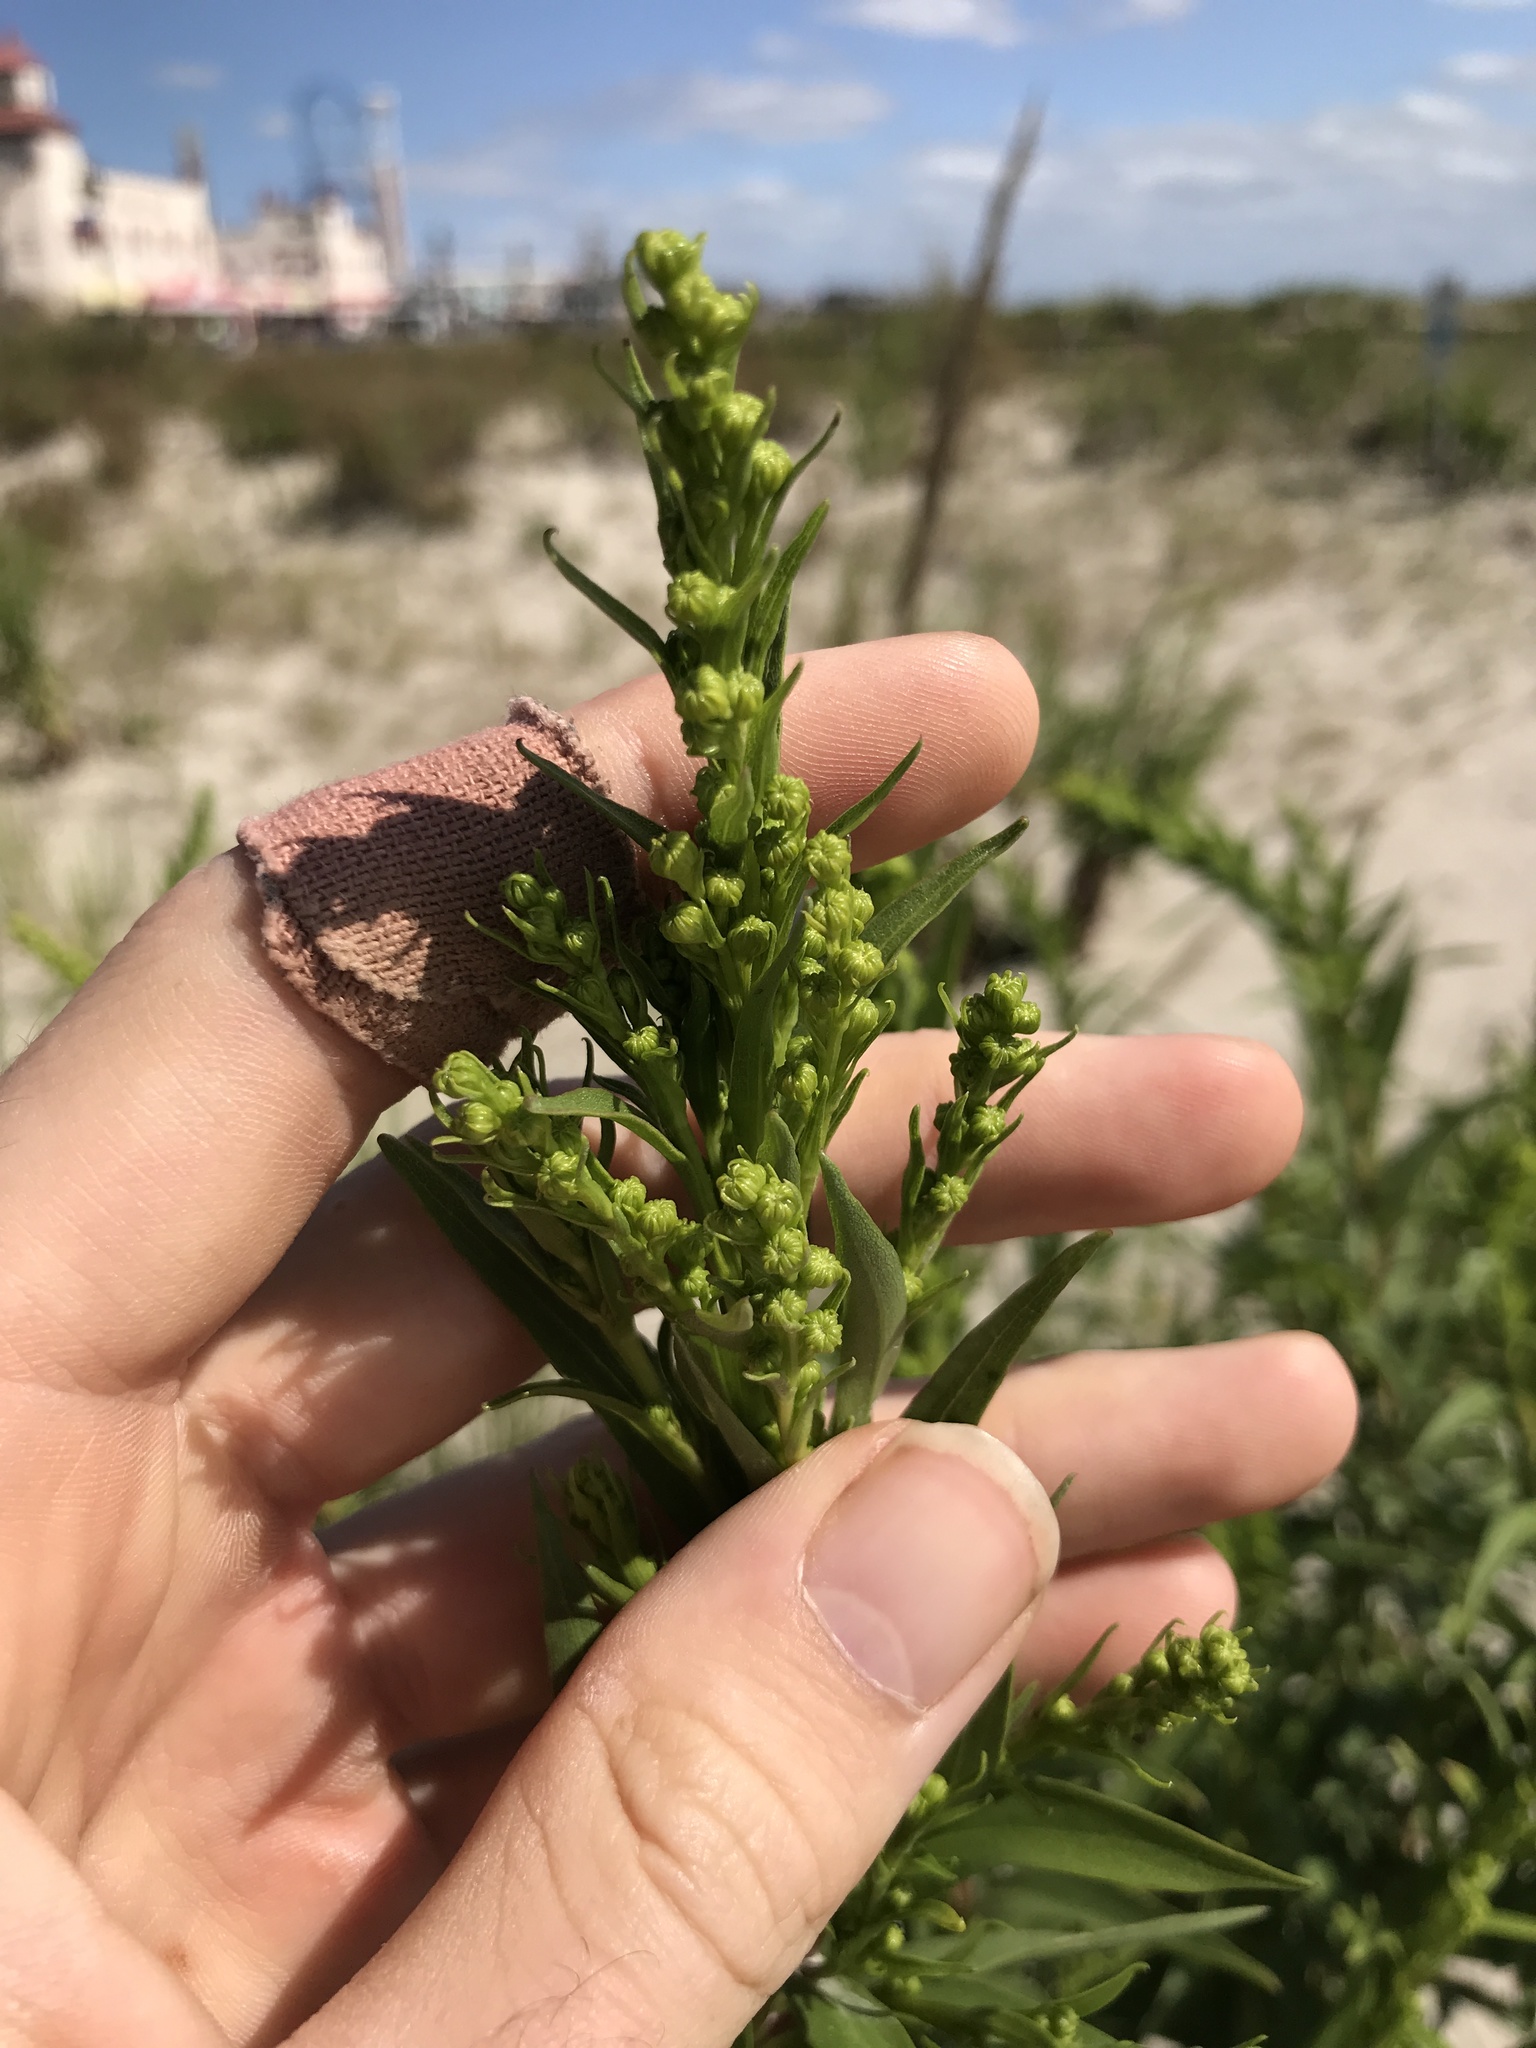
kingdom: Plantae
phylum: Tracheophyta
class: Magnoliopsida
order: Asterales
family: Asteraceae
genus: Solidago
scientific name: Solidago sempervirens
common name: Salt-marsh goldenrod
